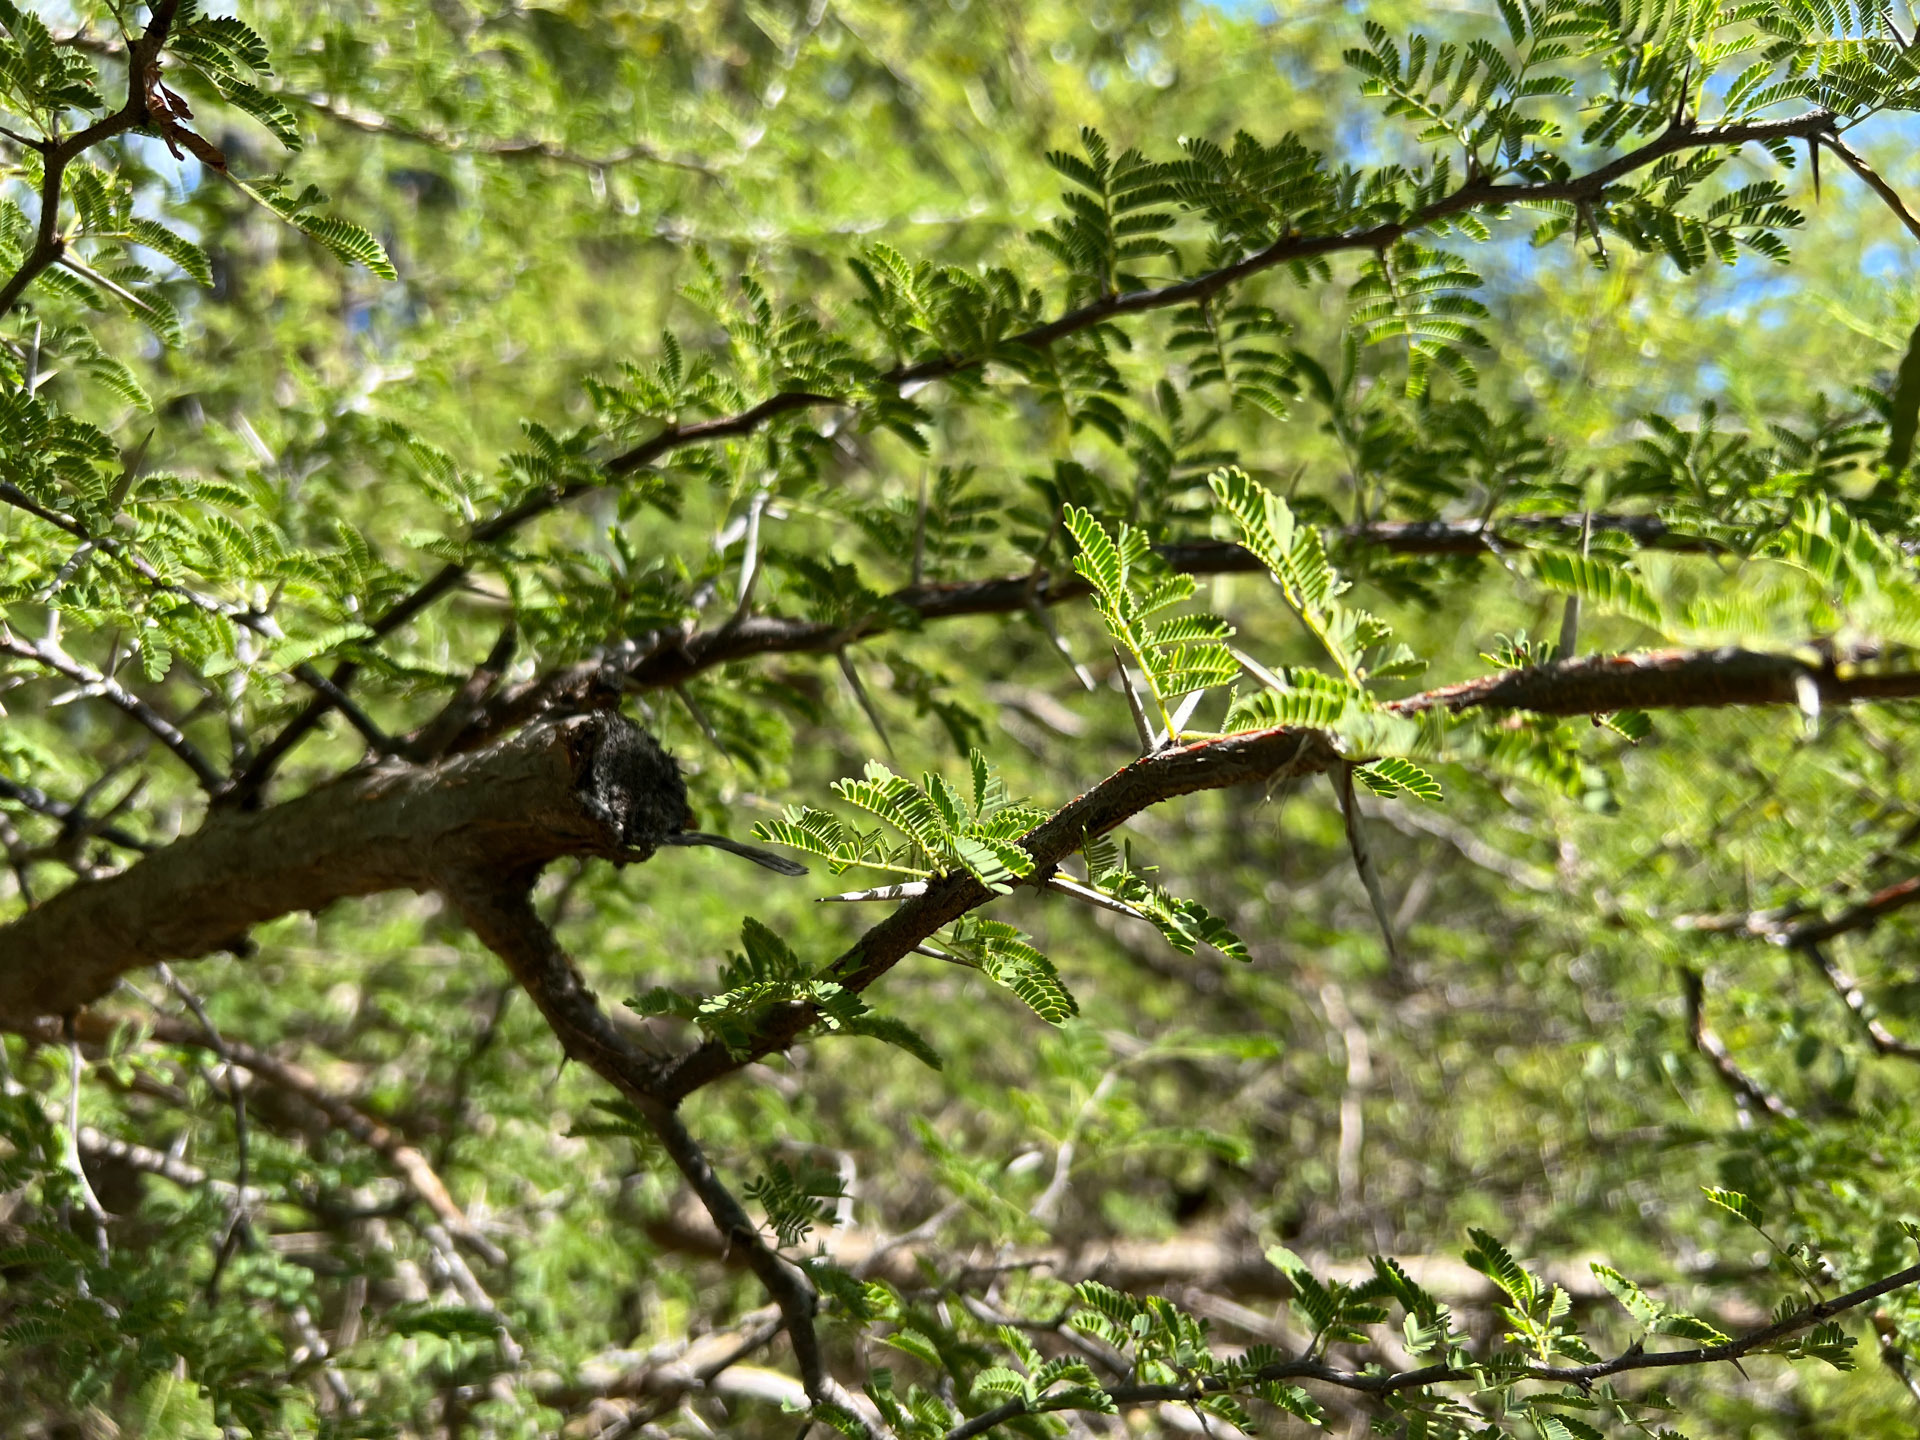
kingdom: Plantae
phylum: Tracheophyta
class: Magnoliopsida
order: Fabales
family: Fabaceae
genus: Vachellia
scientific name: Vachellia tortuosa
